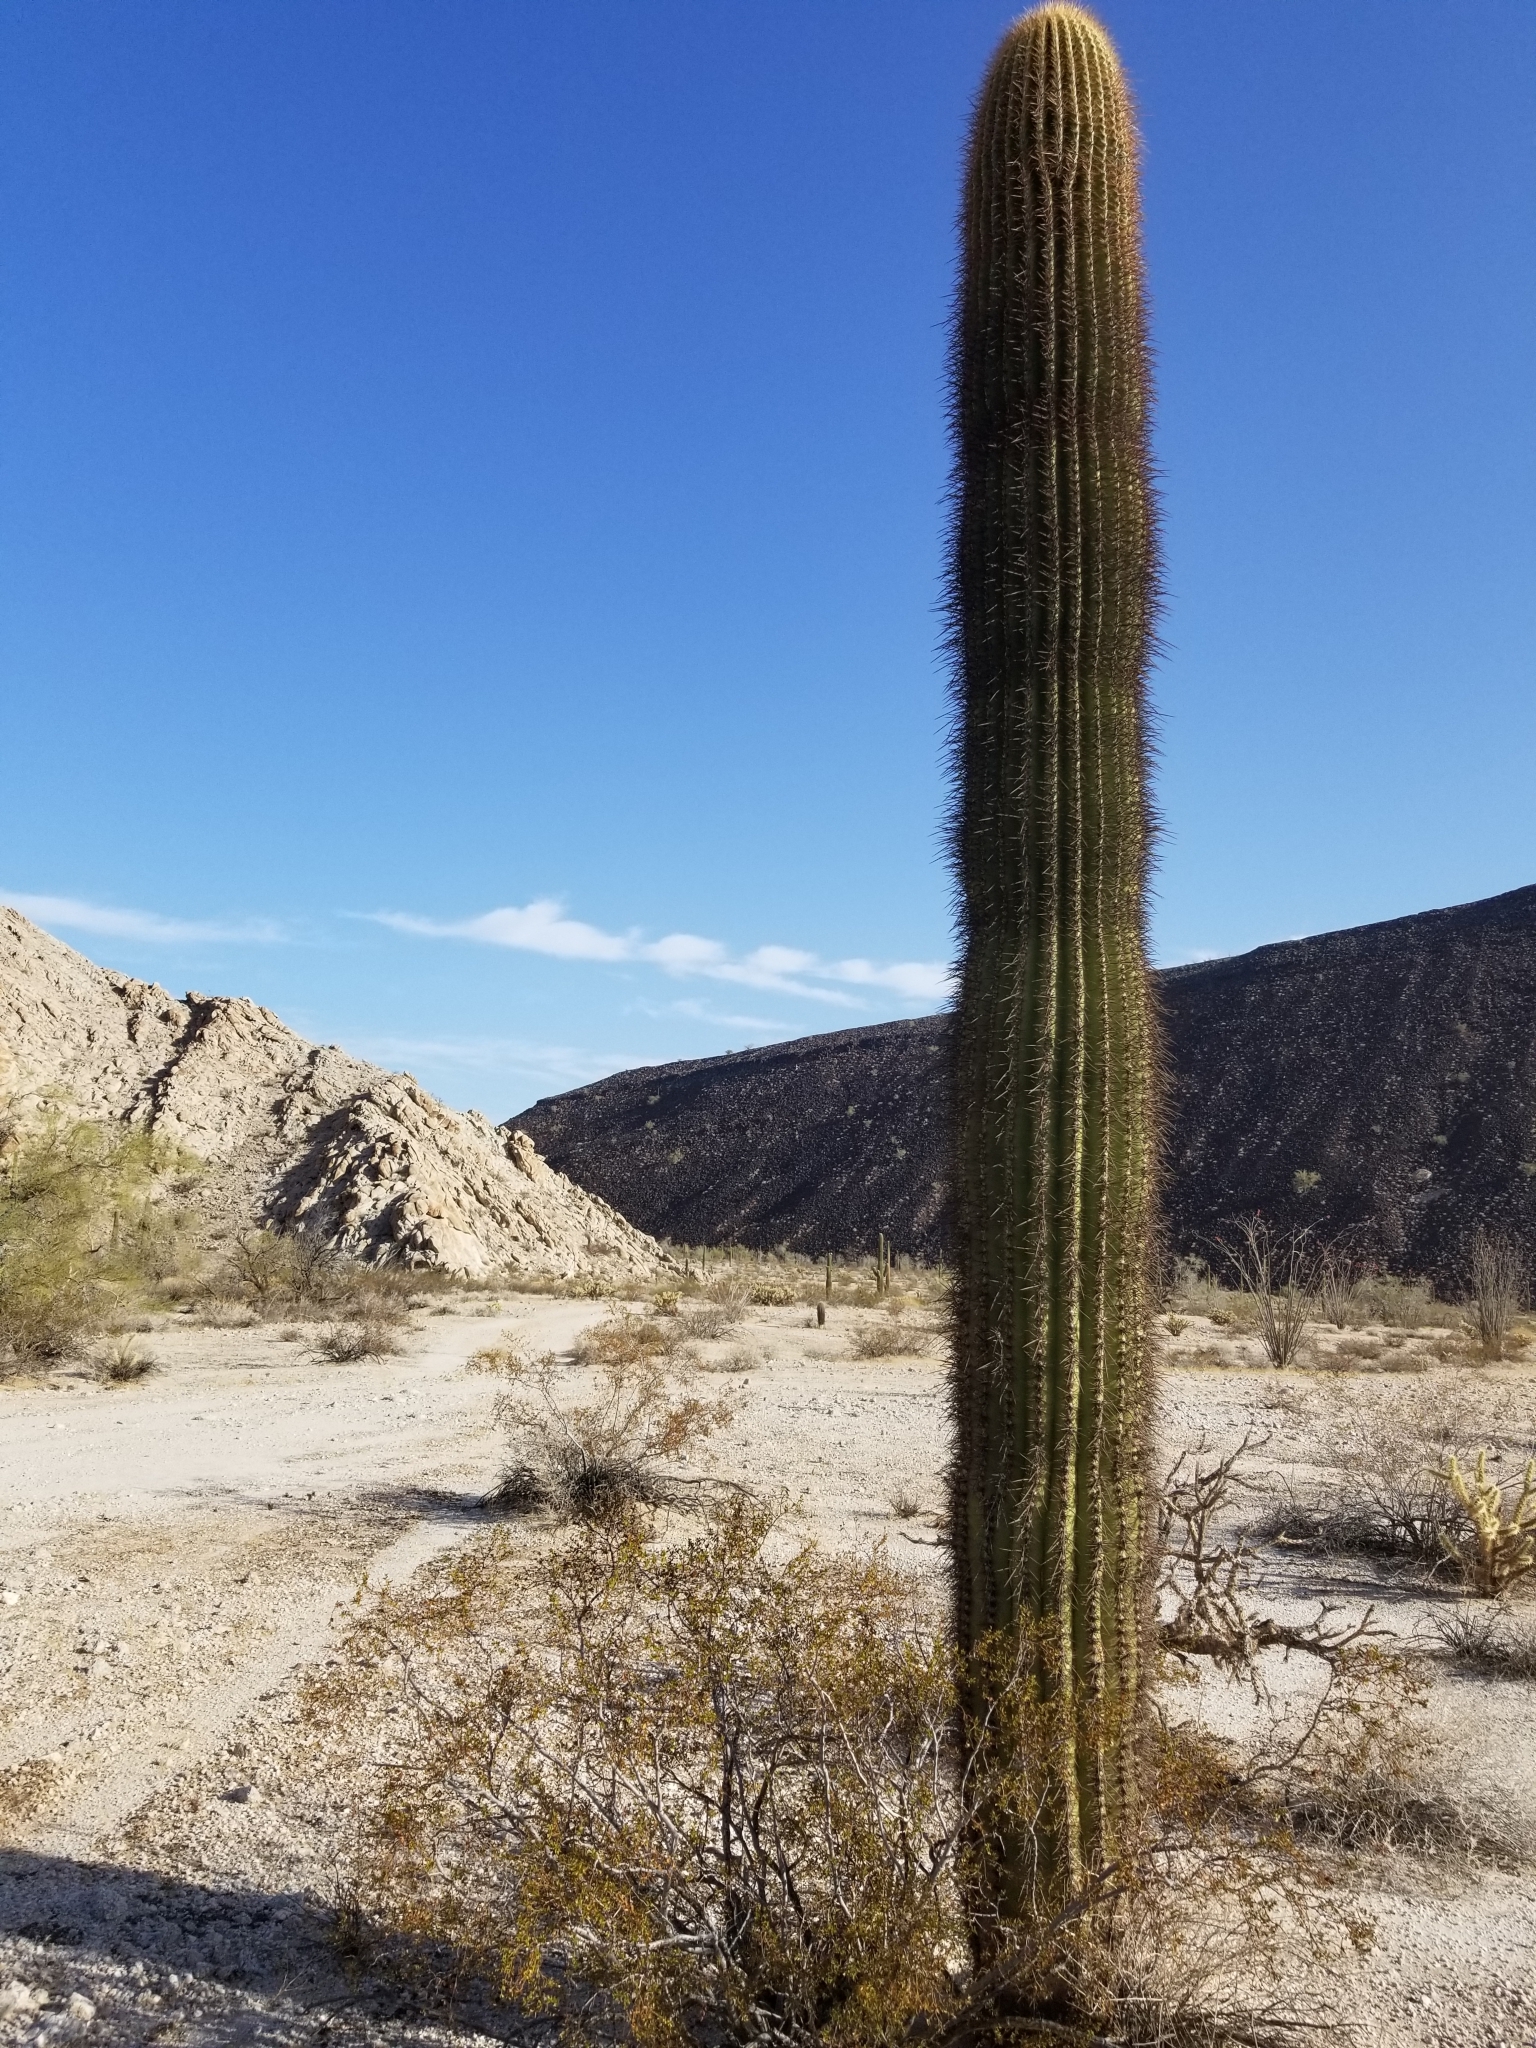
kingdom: Plantae
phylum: Tracheophyta
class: Magnoliopsida
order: Caryophyllales
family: Cactaceae
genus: Carnegiea
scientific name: Carnegiea gigantea
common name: Saguaro
